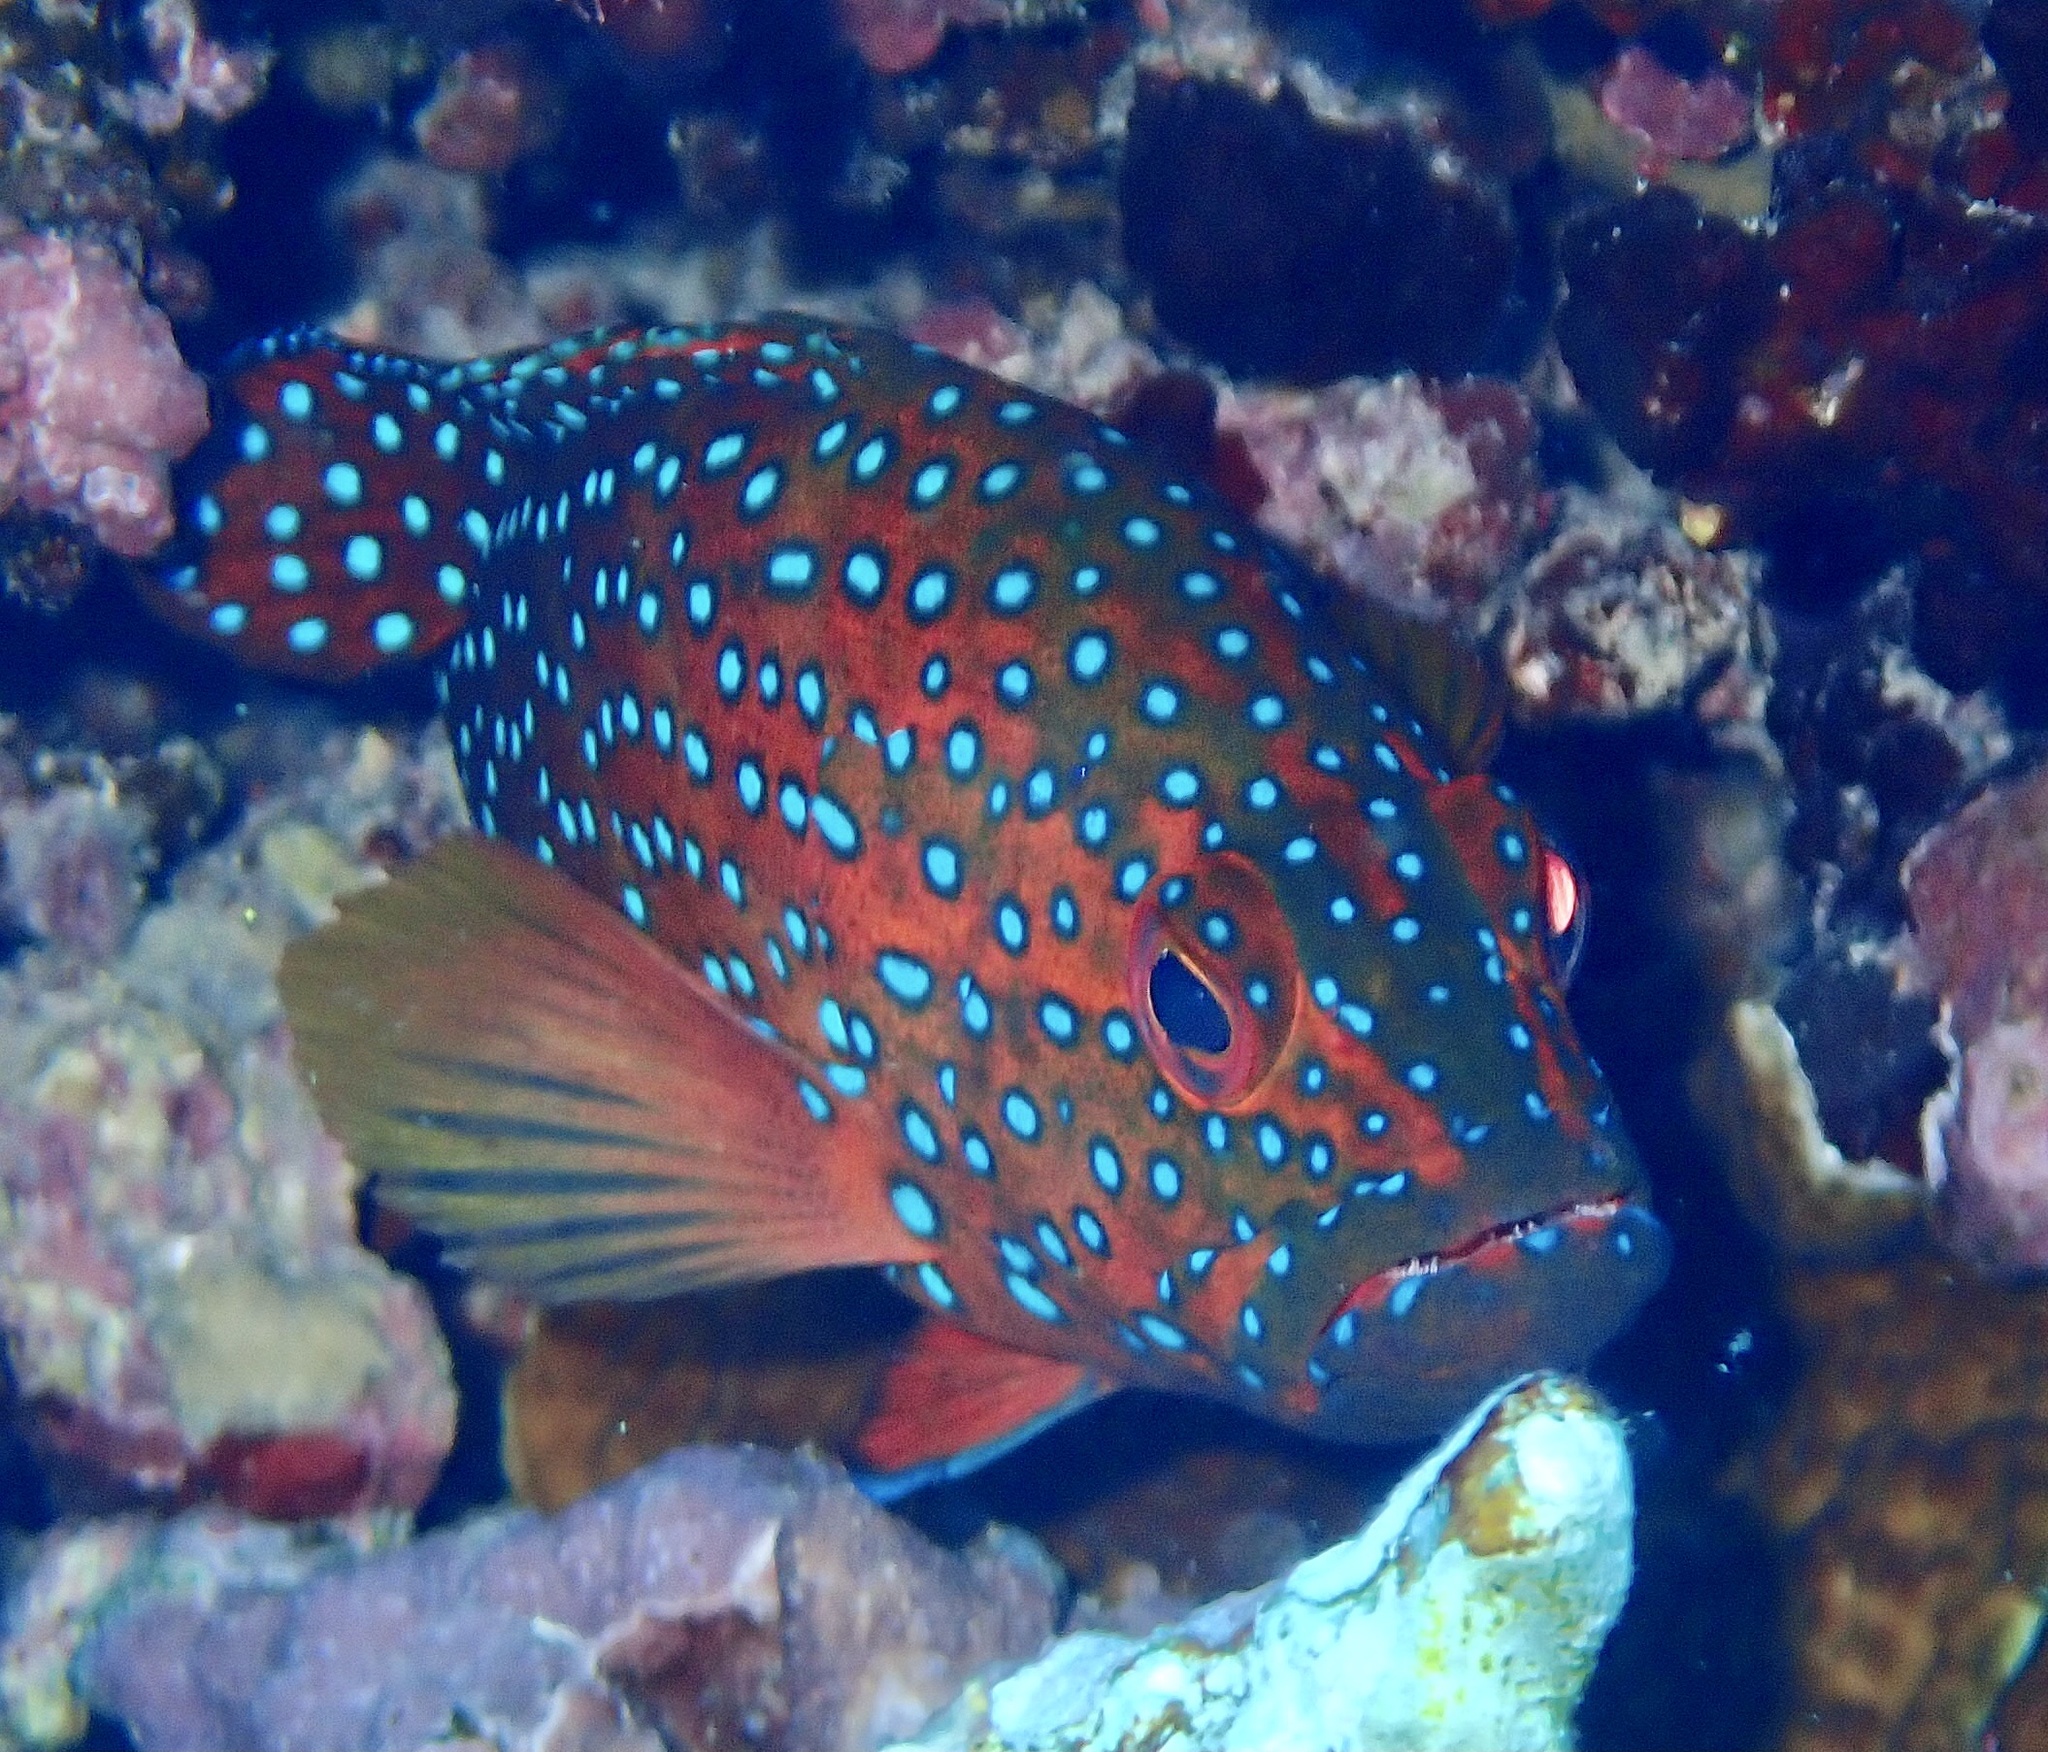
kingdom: Animalia
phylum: Chordata
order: Perciformes
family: Serranidae
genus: Cephalopholis
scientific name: Cephalopholis miniata
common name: Coral hind
